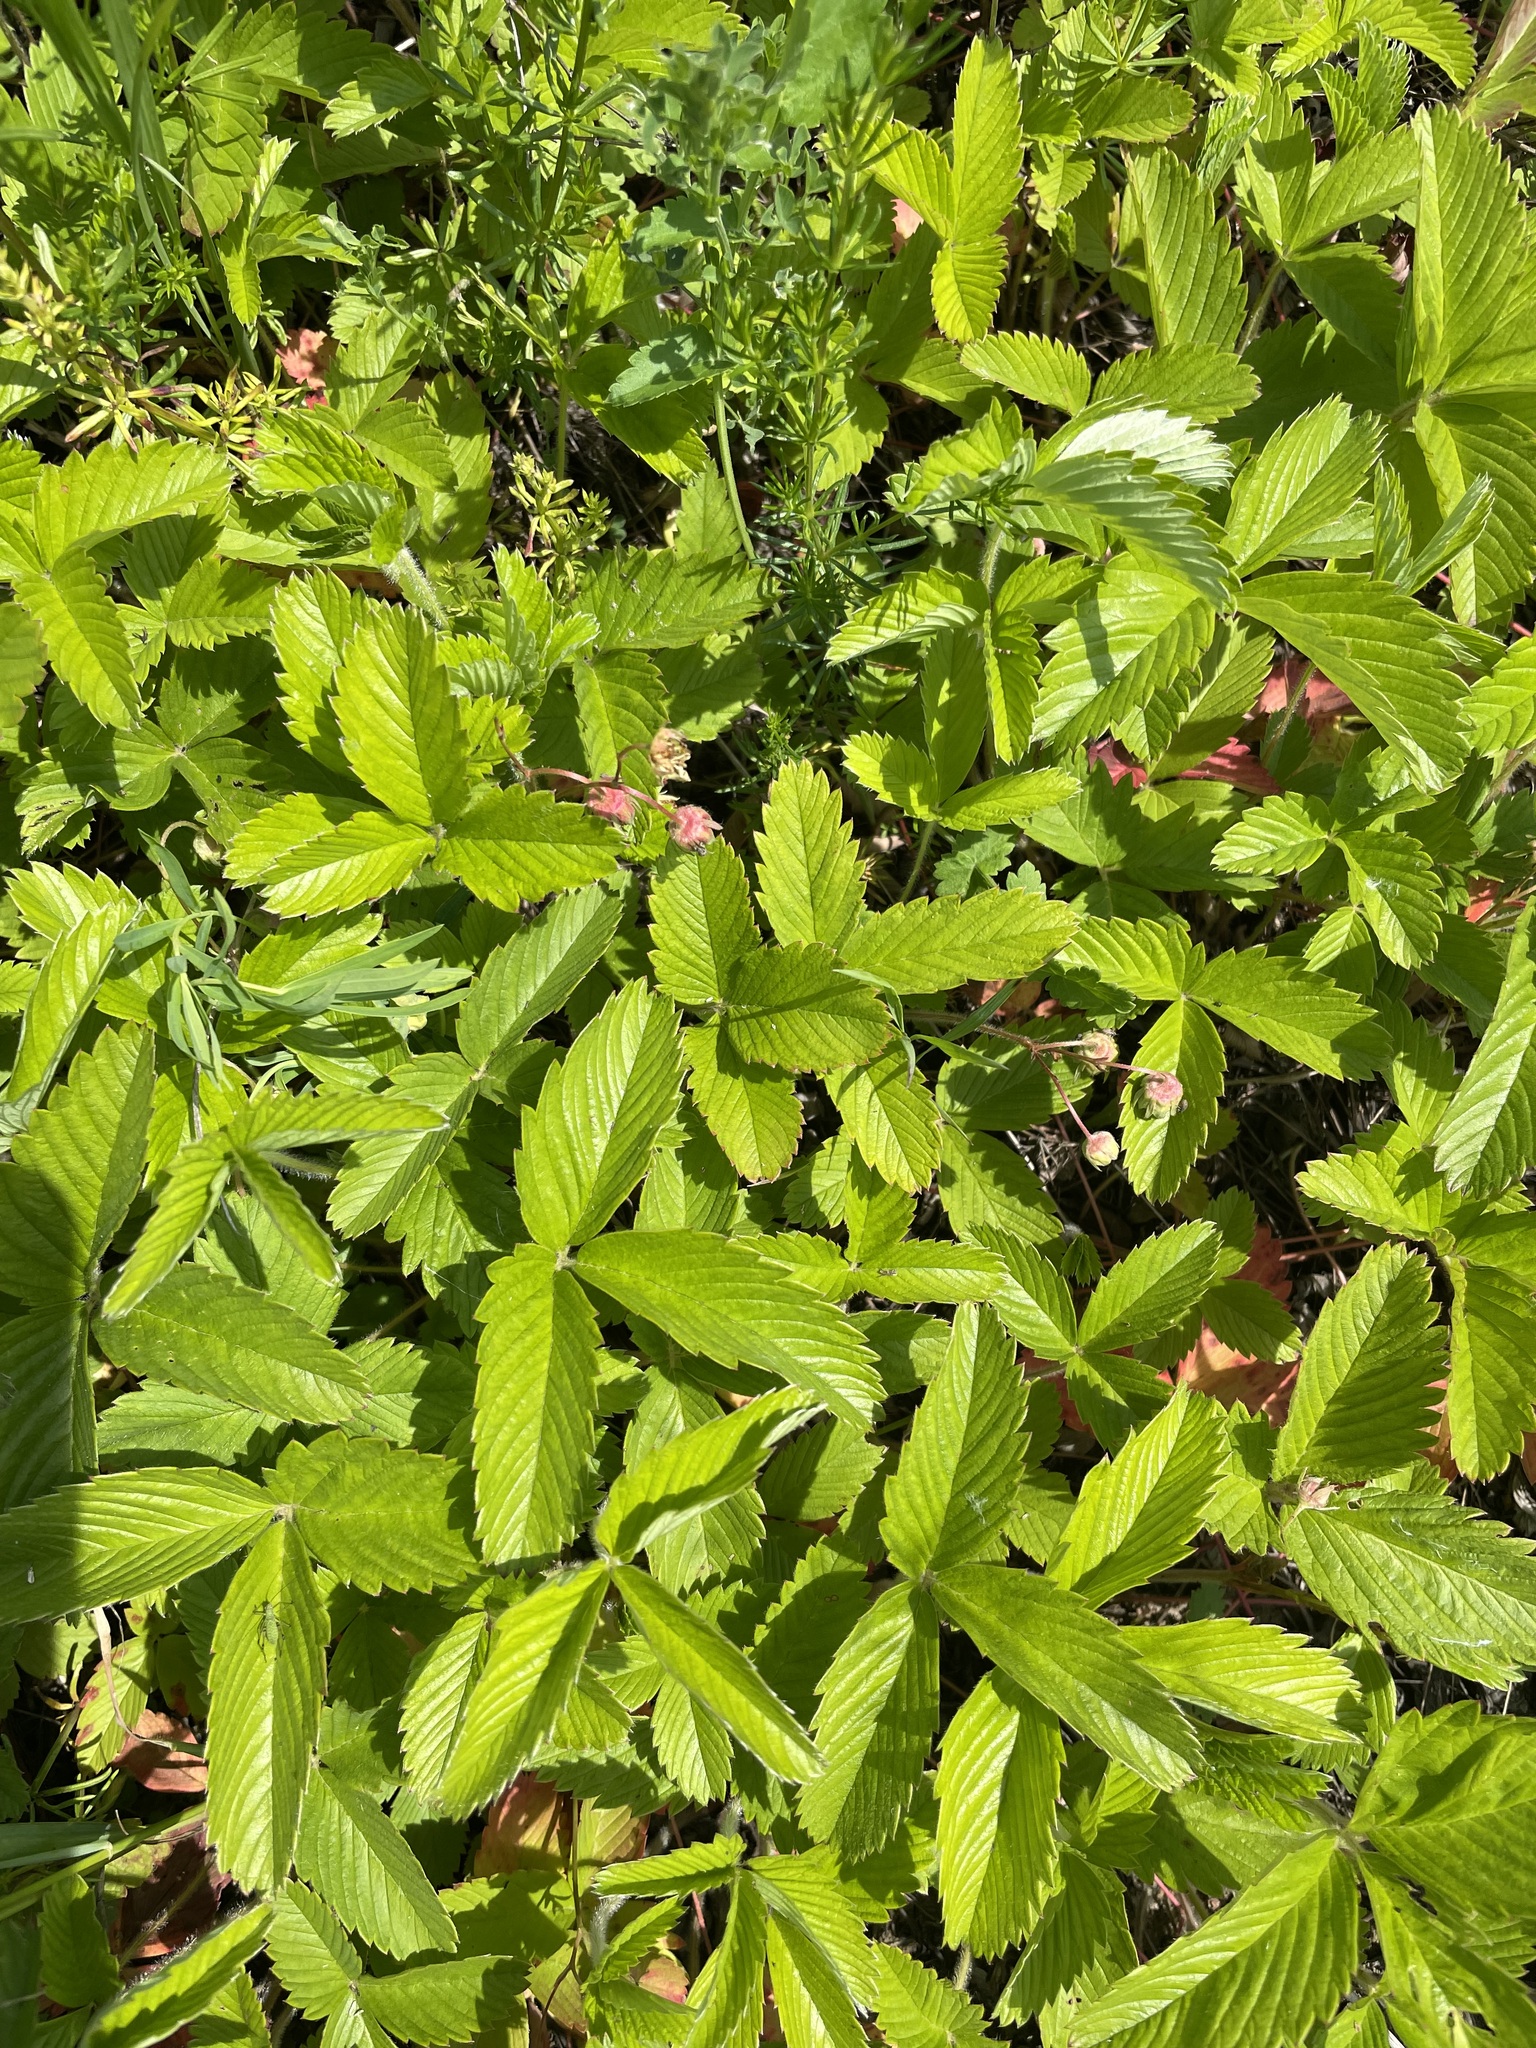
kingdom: Plantae
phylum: Tracheophyta
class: Magnoliopsida
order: Rosales
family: Rosaceae
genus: Fragaria
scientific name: Fragaria viridis
